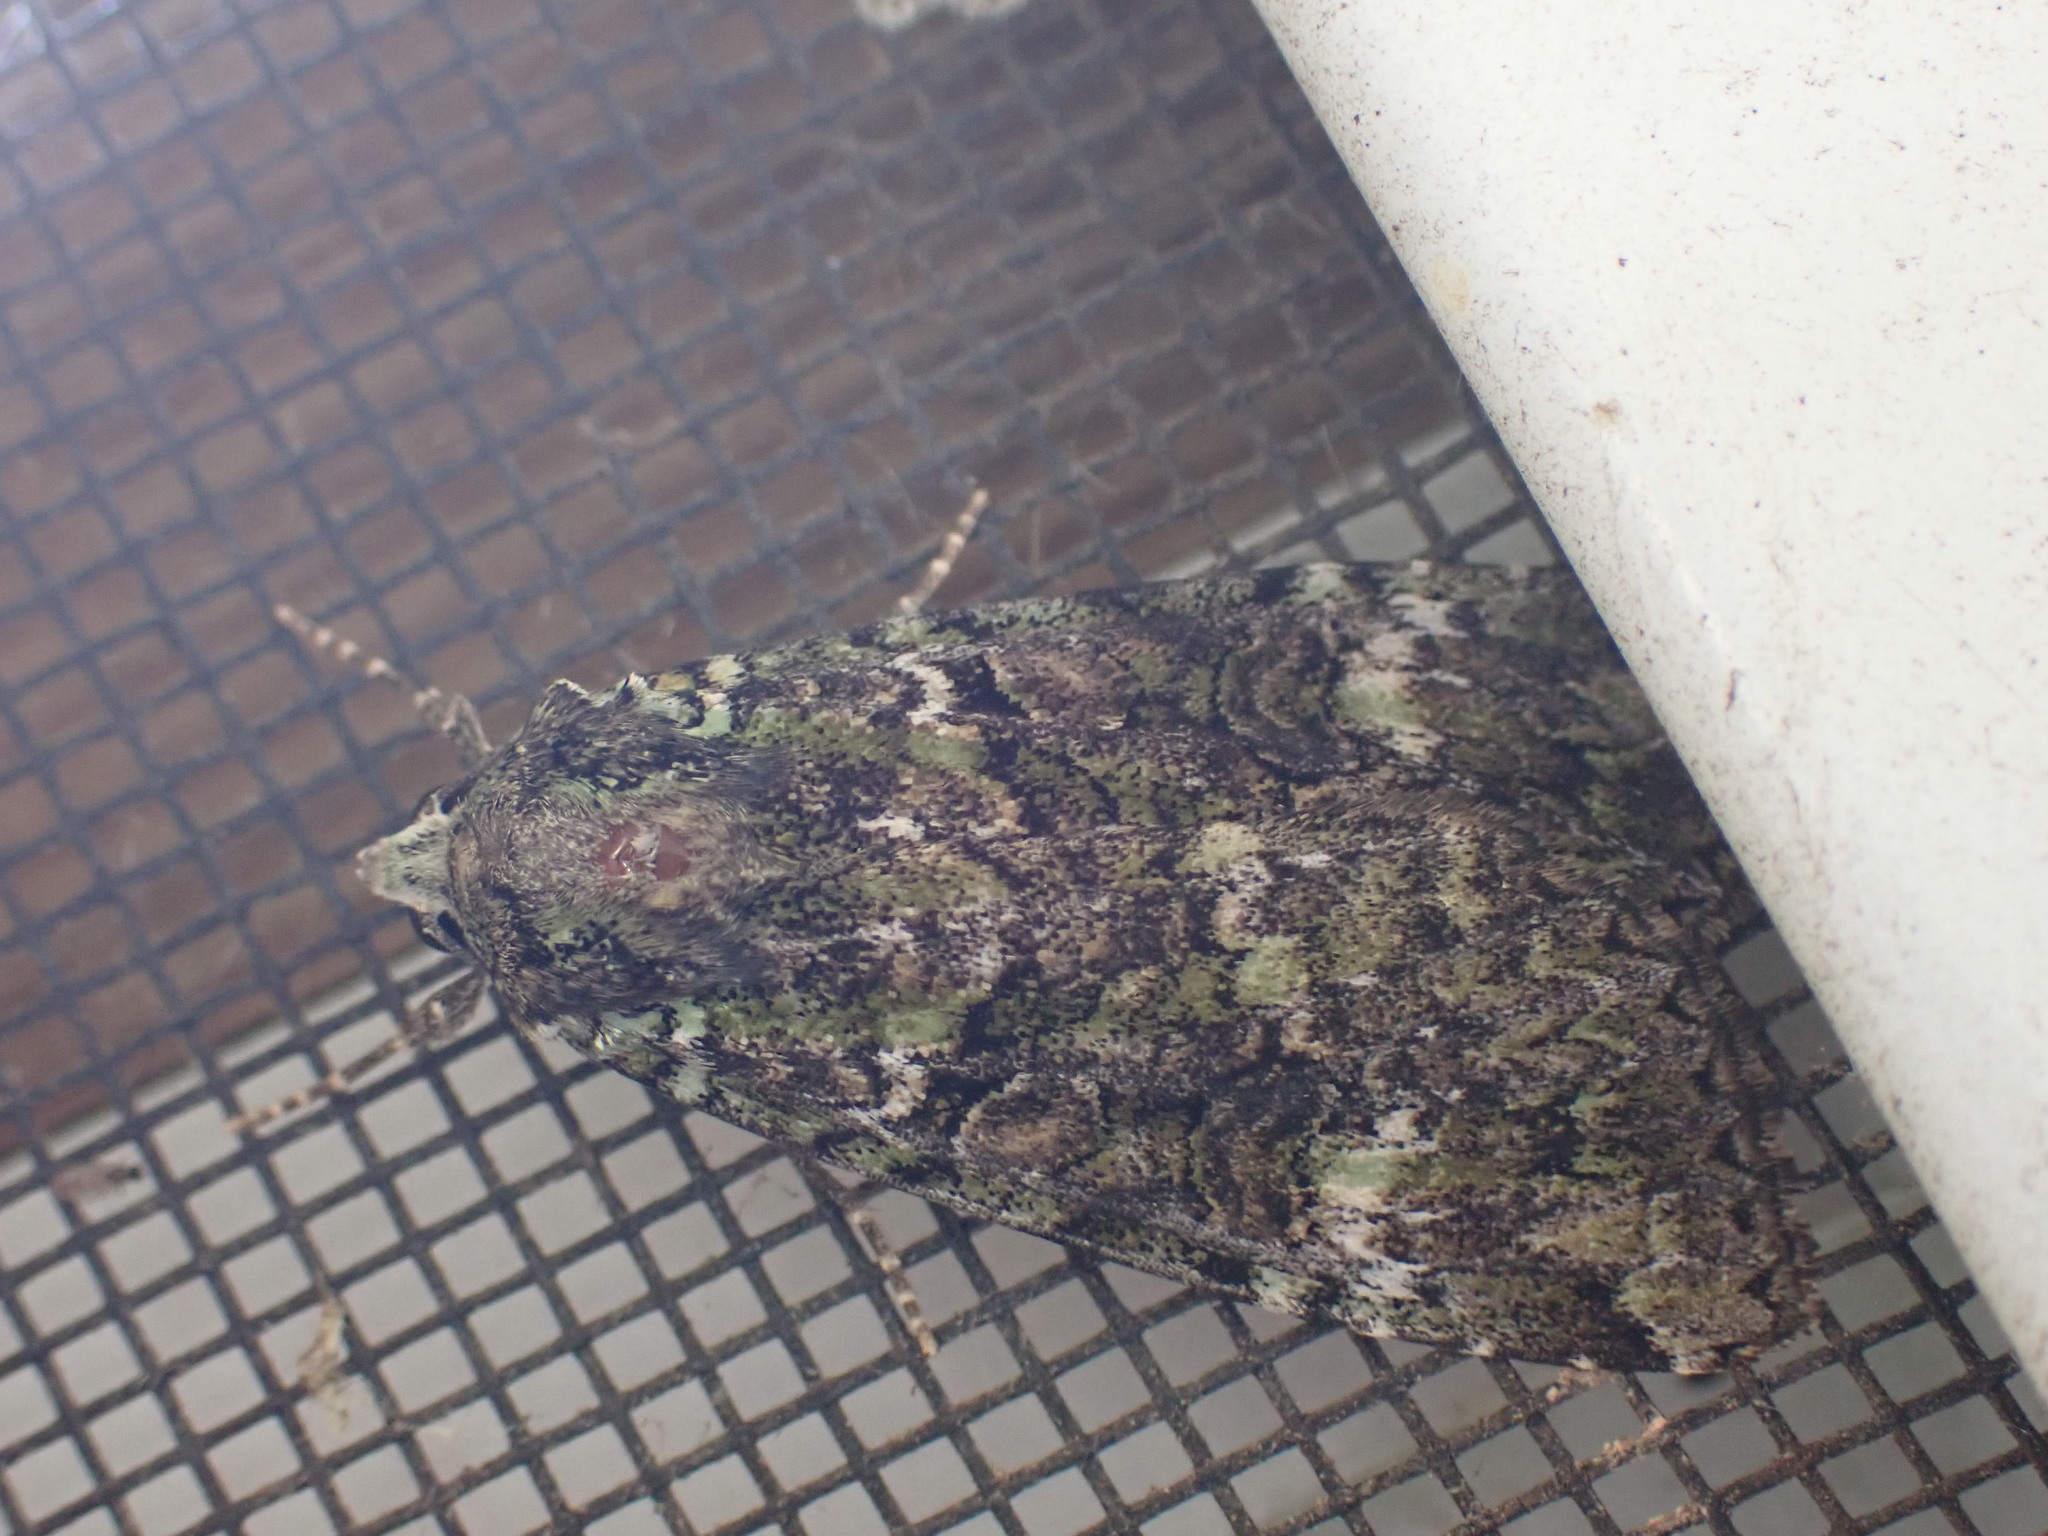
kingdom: Animalia
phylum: Arthropoda
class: Insecta
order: Lepidoptera
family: Noctuidae
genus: Anaplectoides
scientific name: Anaplectoides prasina
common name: Green arches
